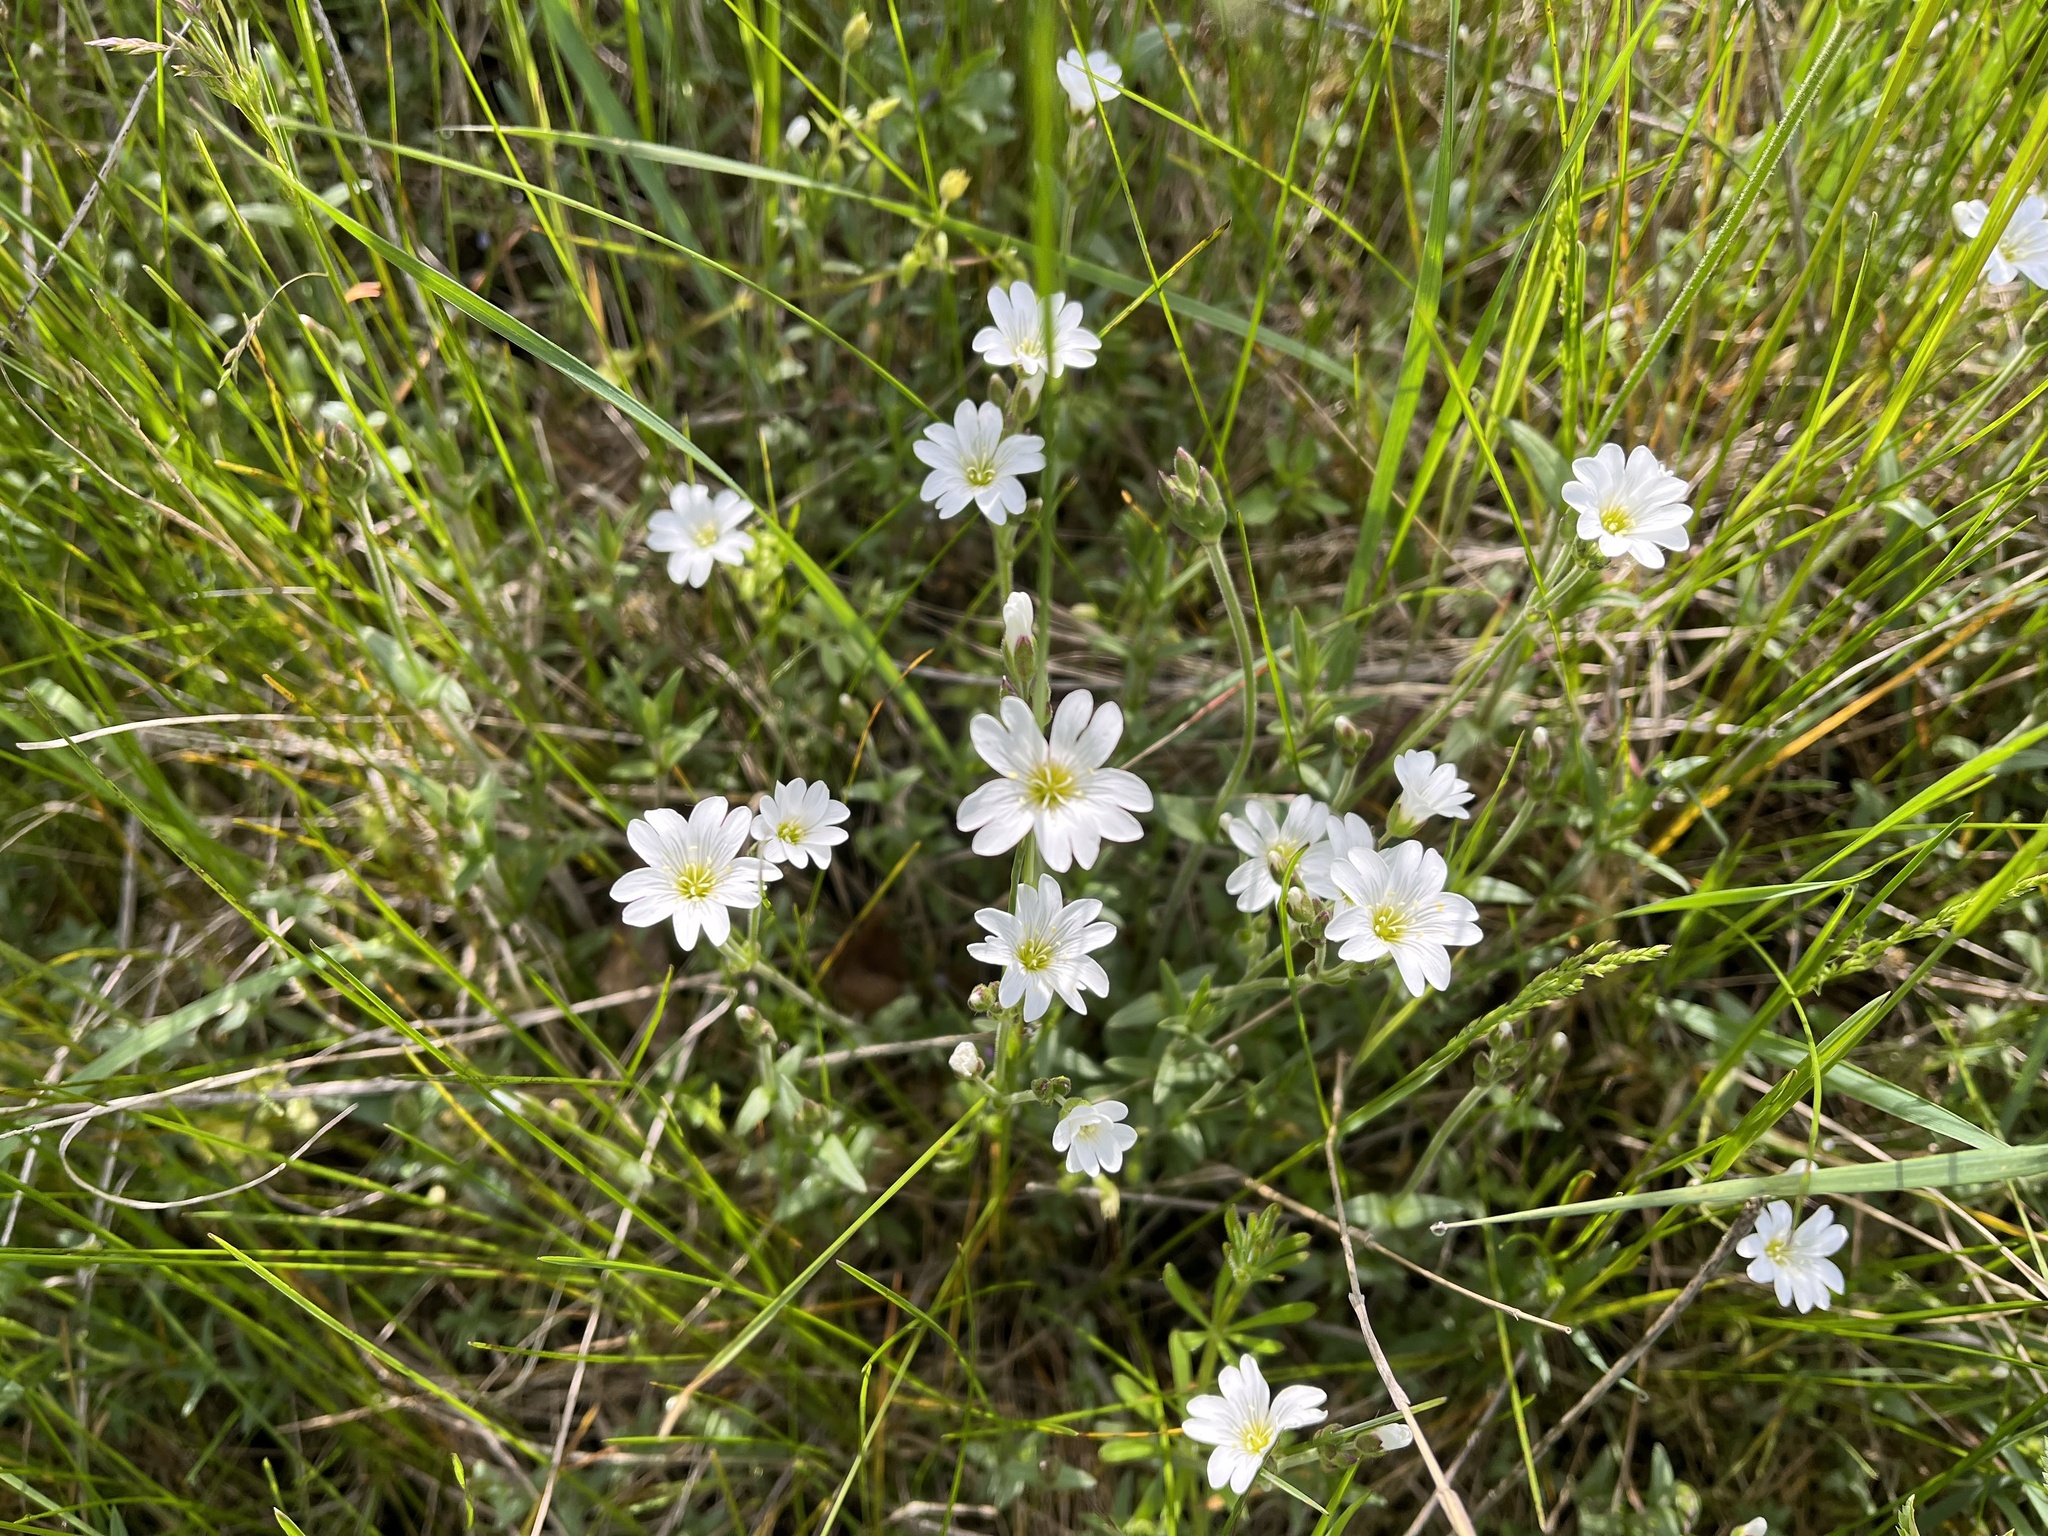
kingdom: Plantae
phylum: Tracheophyta
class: Magnoliopsida
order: Caryophyllales
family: Caryophyllaceae
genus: Cerastium
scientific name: Cerastium arvense
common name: Field mouse-ear
